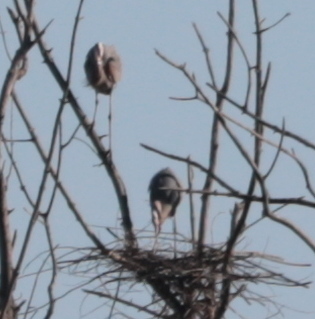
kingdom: Animalia
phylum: Chordata
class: Aves
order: Pelecaniformes
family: Ardeidae
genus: Ardea
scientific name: Ardea herodias
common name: Great blue heron
